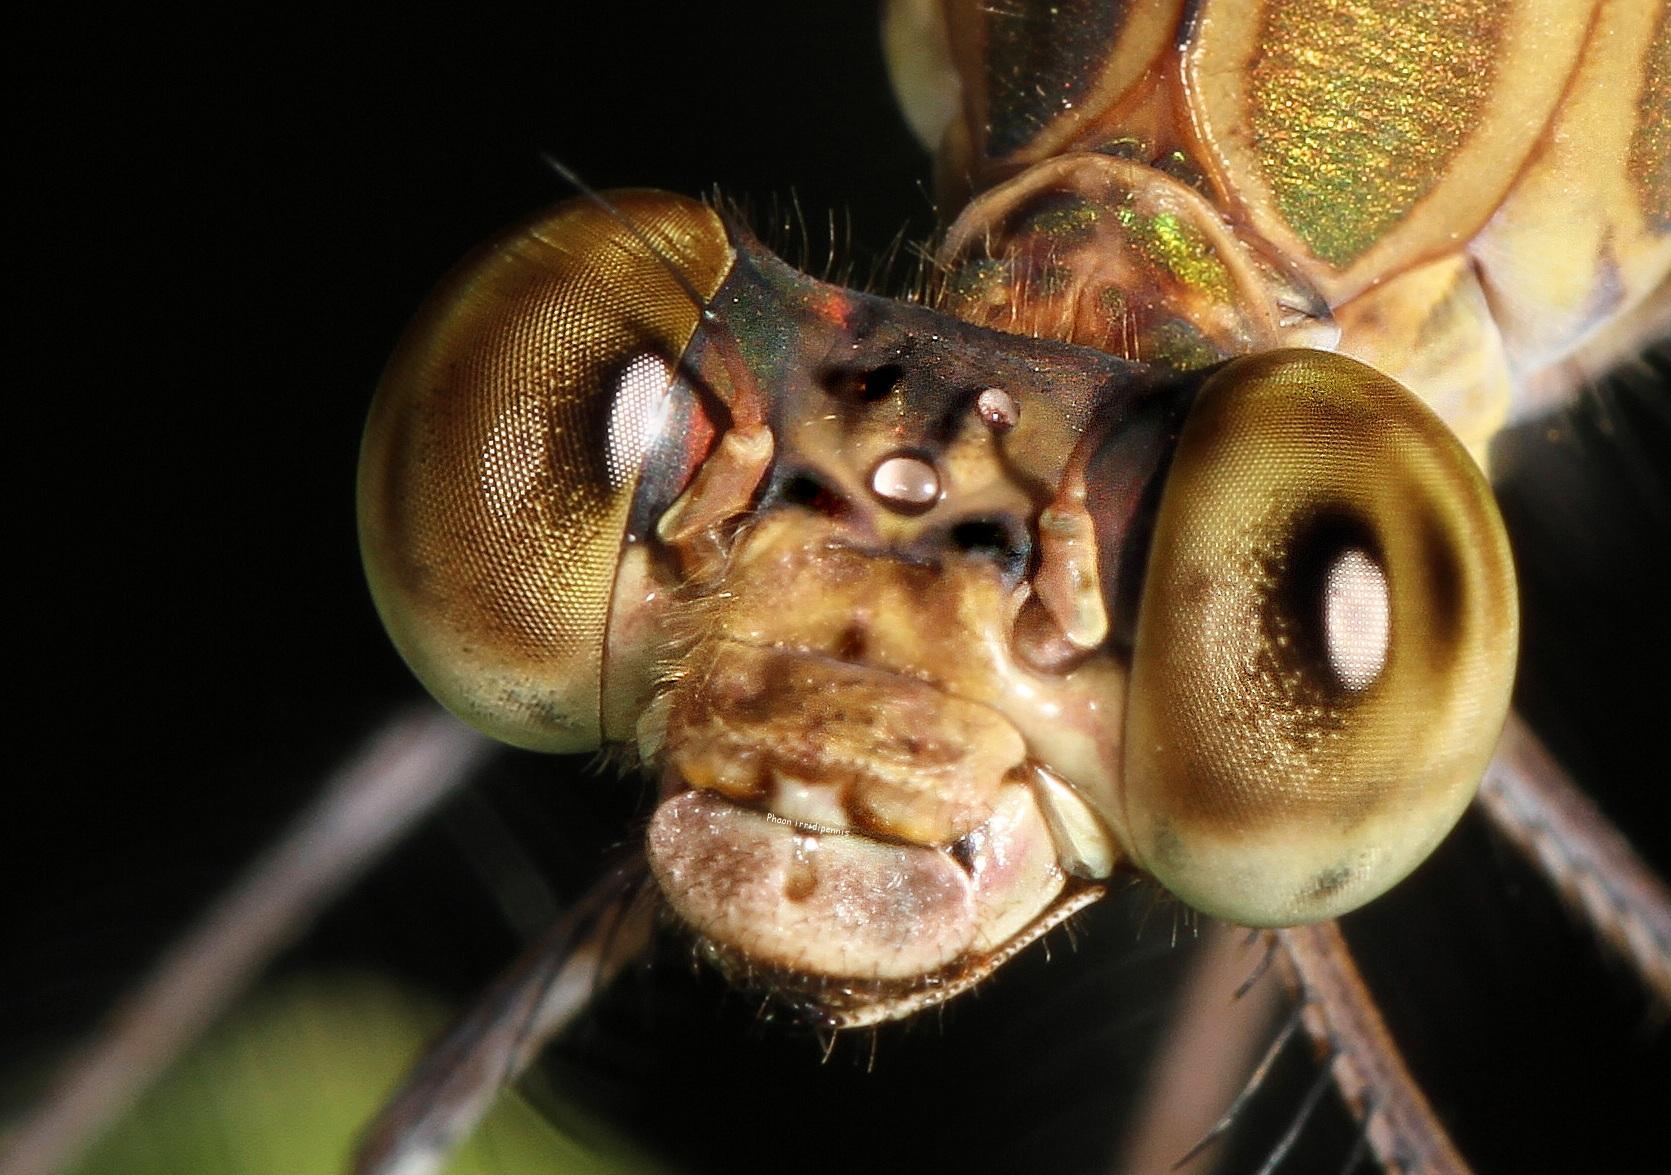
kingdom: Animalia
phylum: Arthropoda
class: Insecta
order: Odonata
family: Calopterygidae
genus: Phaon
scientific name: Phaon iridipennis
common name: Glistening demoiselle
